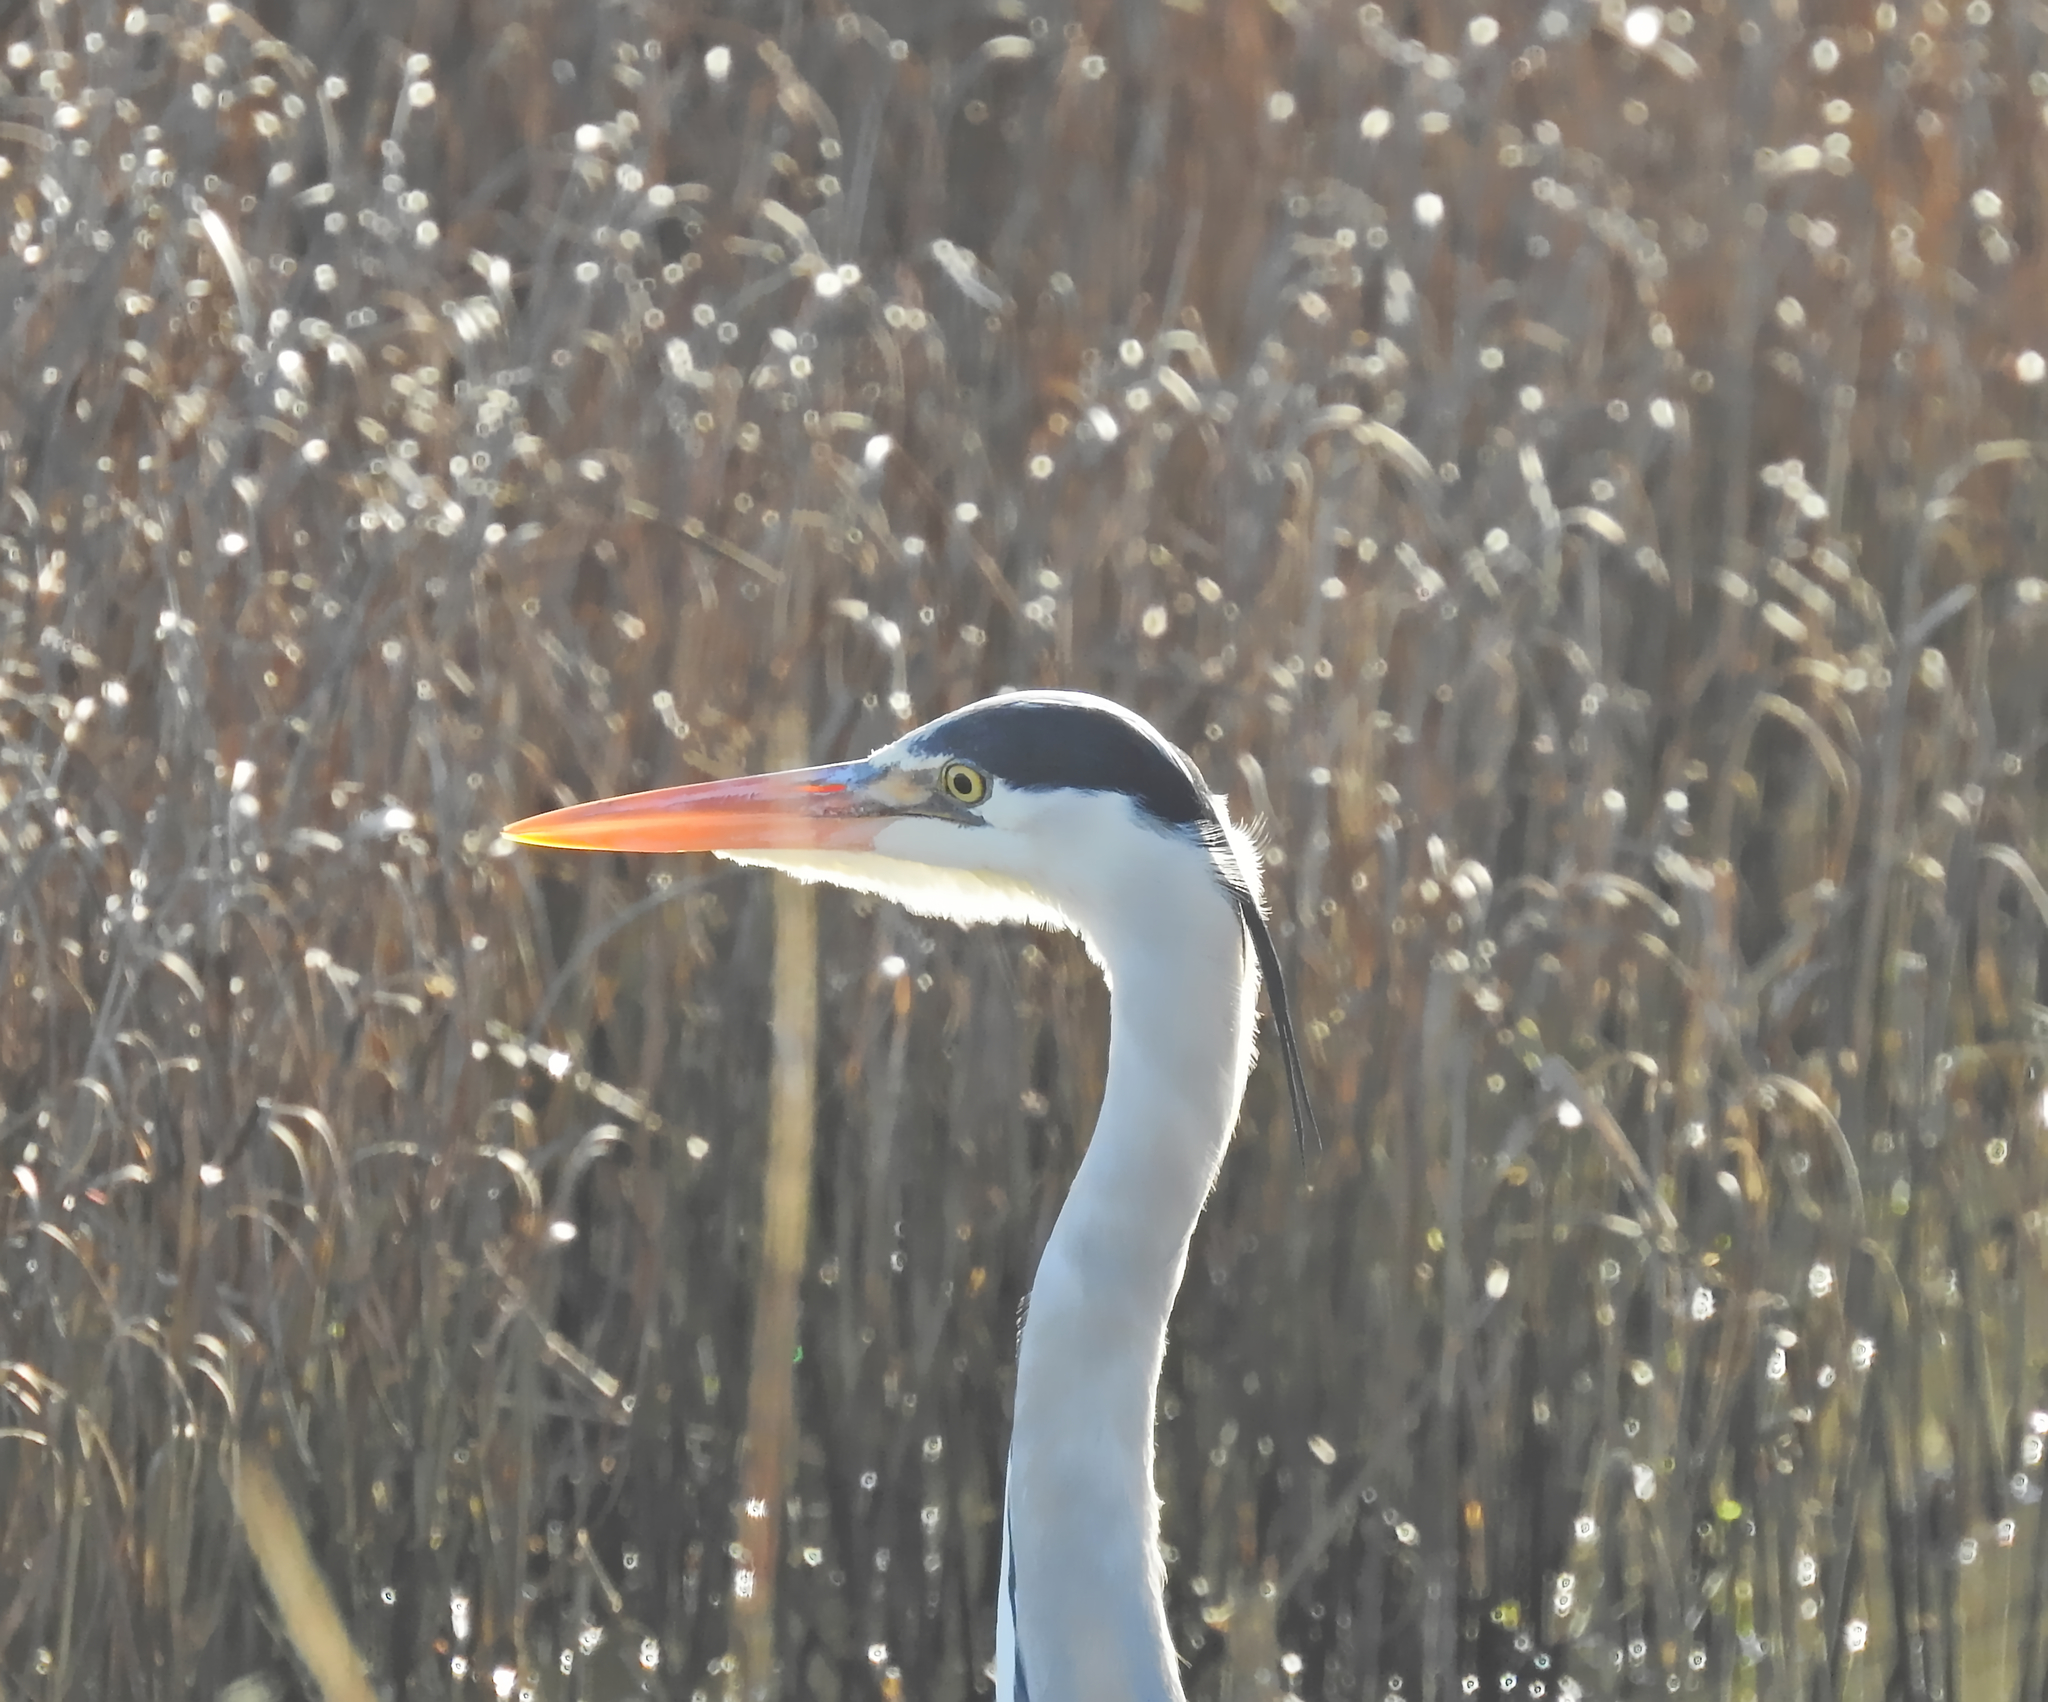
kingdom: Animalia
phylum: Chordata
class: Aves
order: Pelecaniformes
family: Ardeidae
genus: Ardea
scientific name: Ardea cinerea
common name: Grey heron
